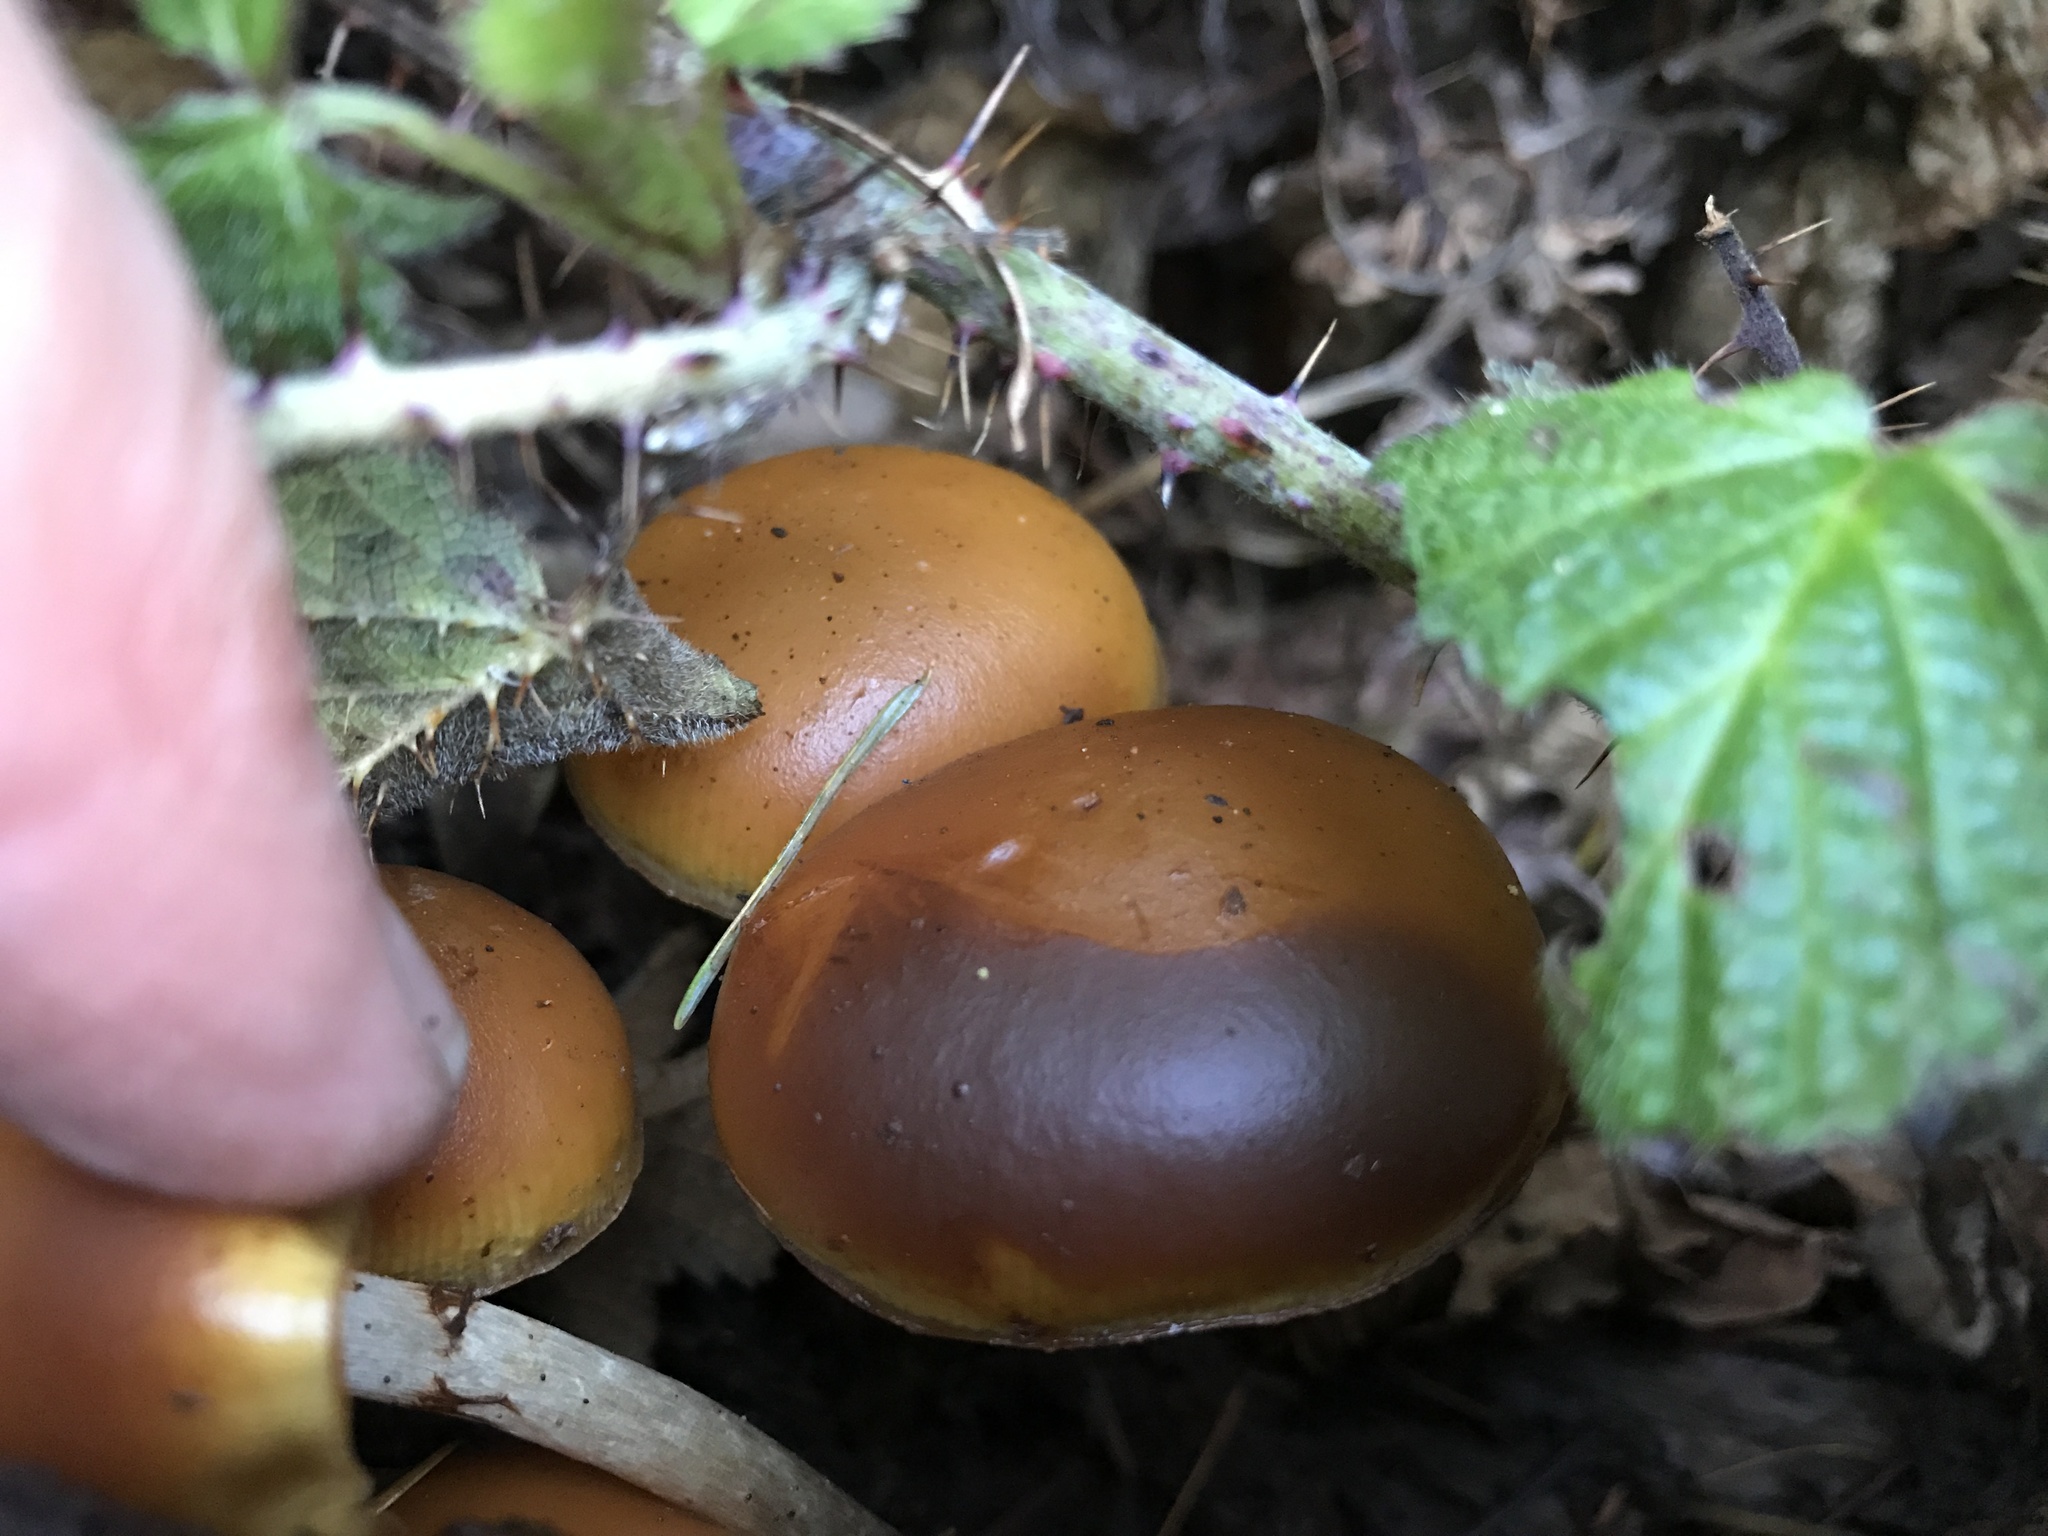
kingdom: Fungi
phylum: Basidiomycota
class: Agaricomycetes
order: Agaricales
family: Hymenogastraceae
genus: Galerina
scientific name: Galerina marginata
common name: Funeral bell
